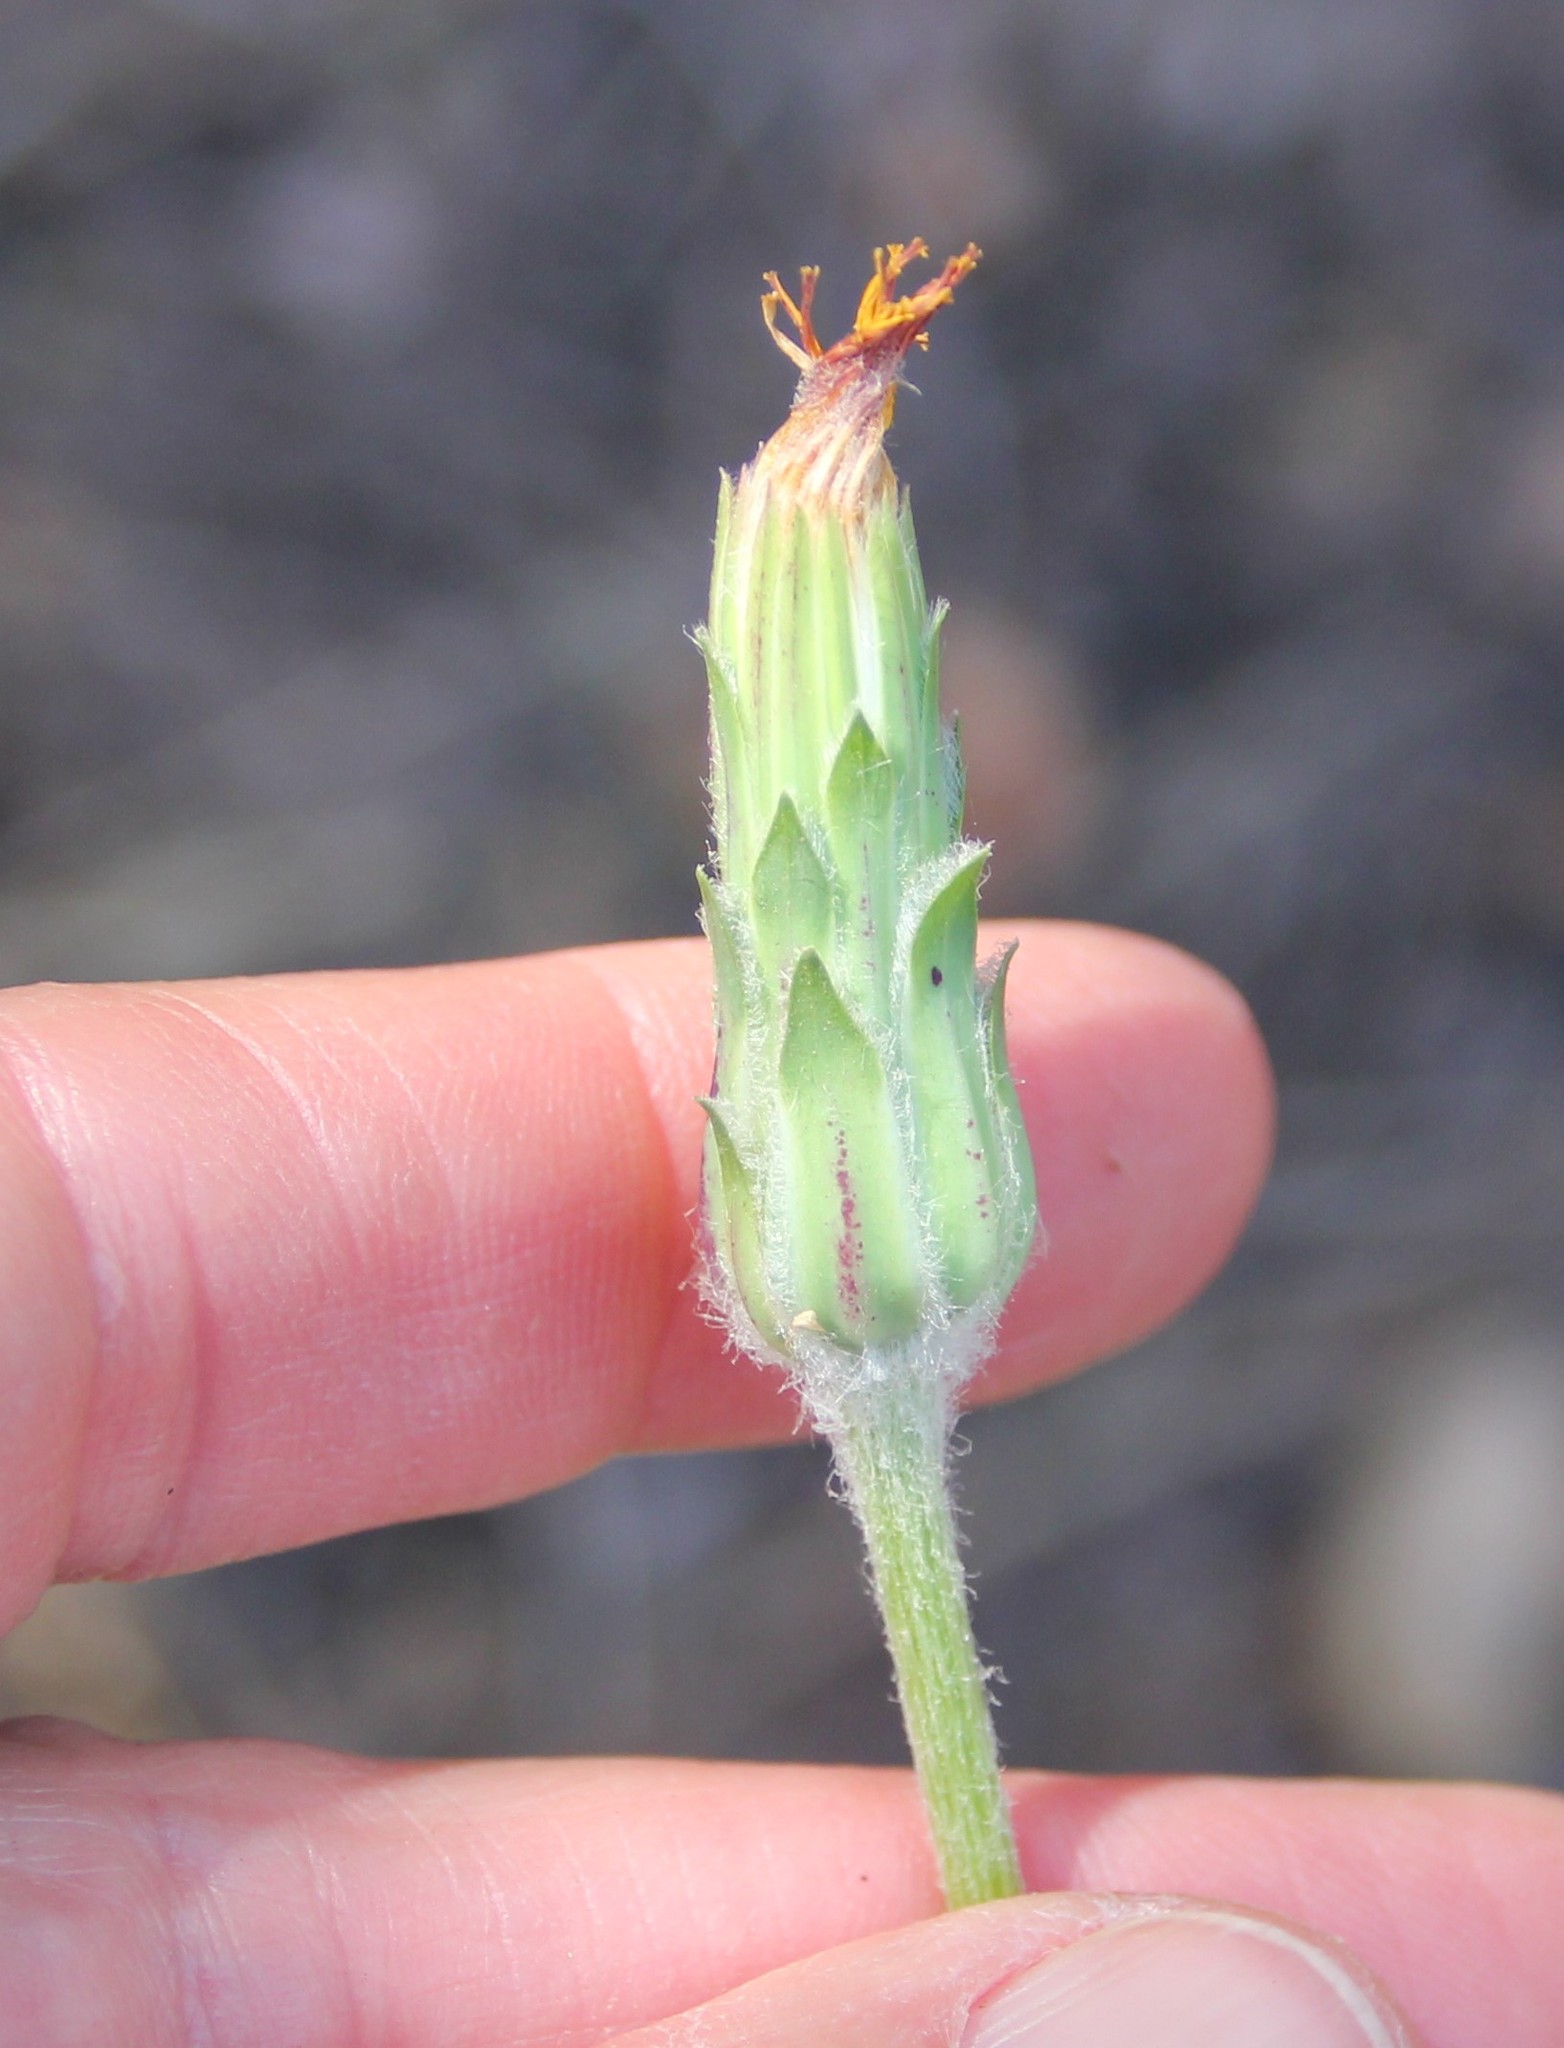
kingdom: Plantae
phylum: Tracheophyta
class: Magnoliopsida
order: Asterales
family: Asteraceae
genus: Agoseris
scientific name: Agoseris retrorsa
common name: Spearleaf agoseris
